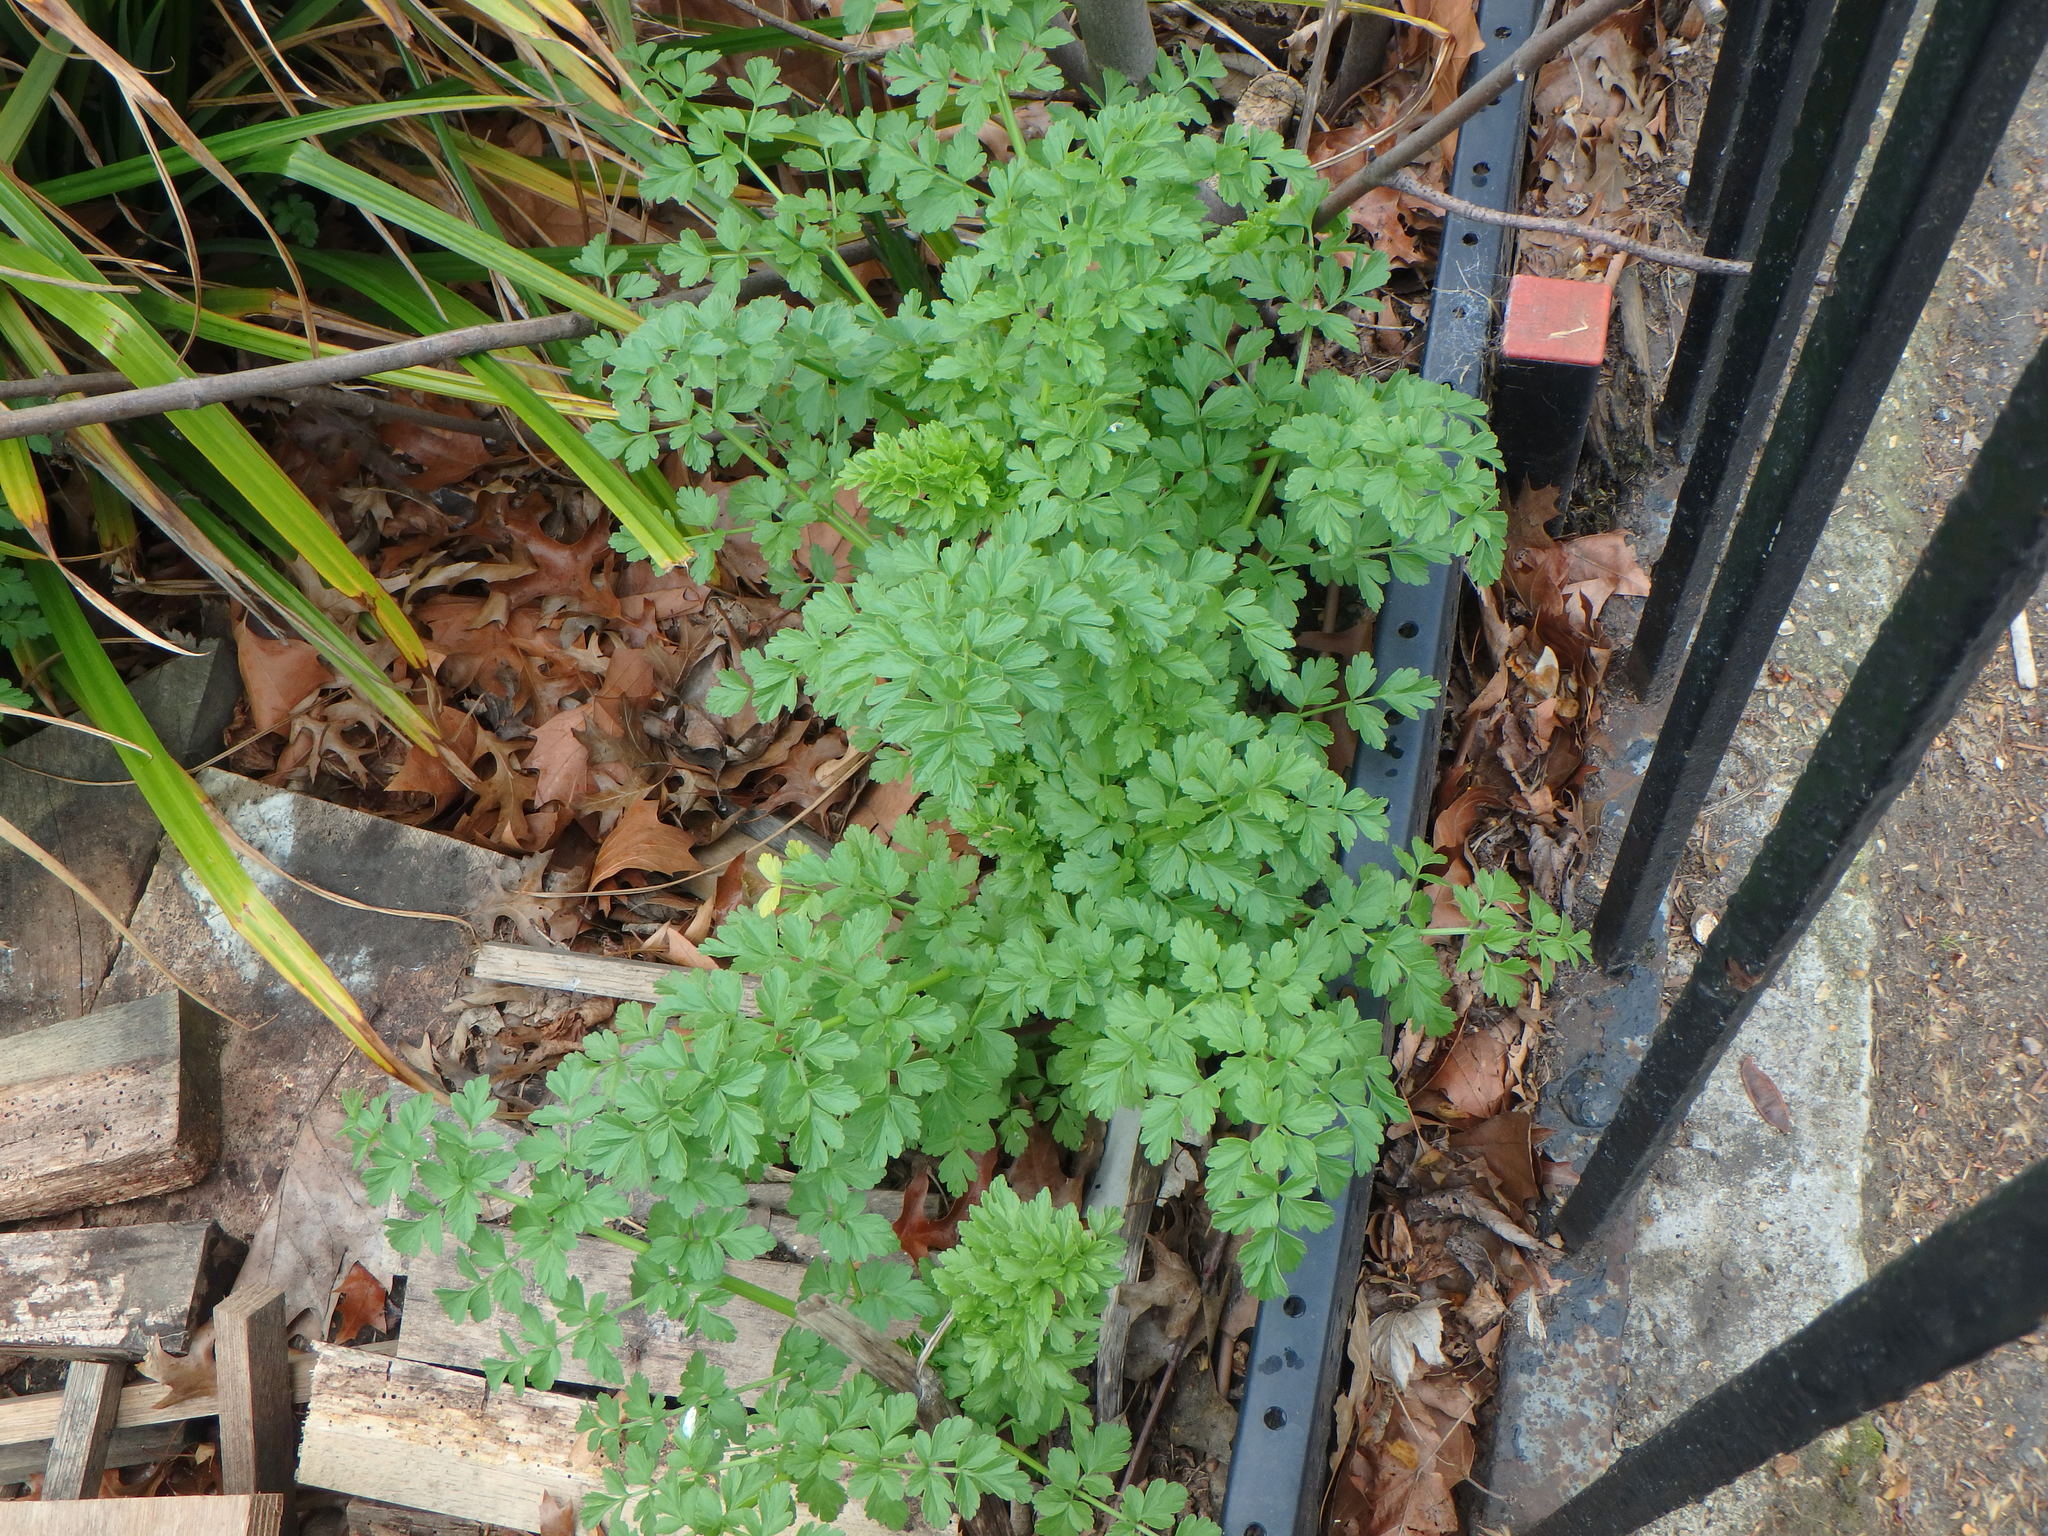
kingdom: Plantae
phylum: Tracheophyta
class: Magnoliopsida
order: Apiales
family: Apiaceae
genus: Oenanthe
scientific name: Oenanthe crocata
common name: Hemlock water-dropwort
